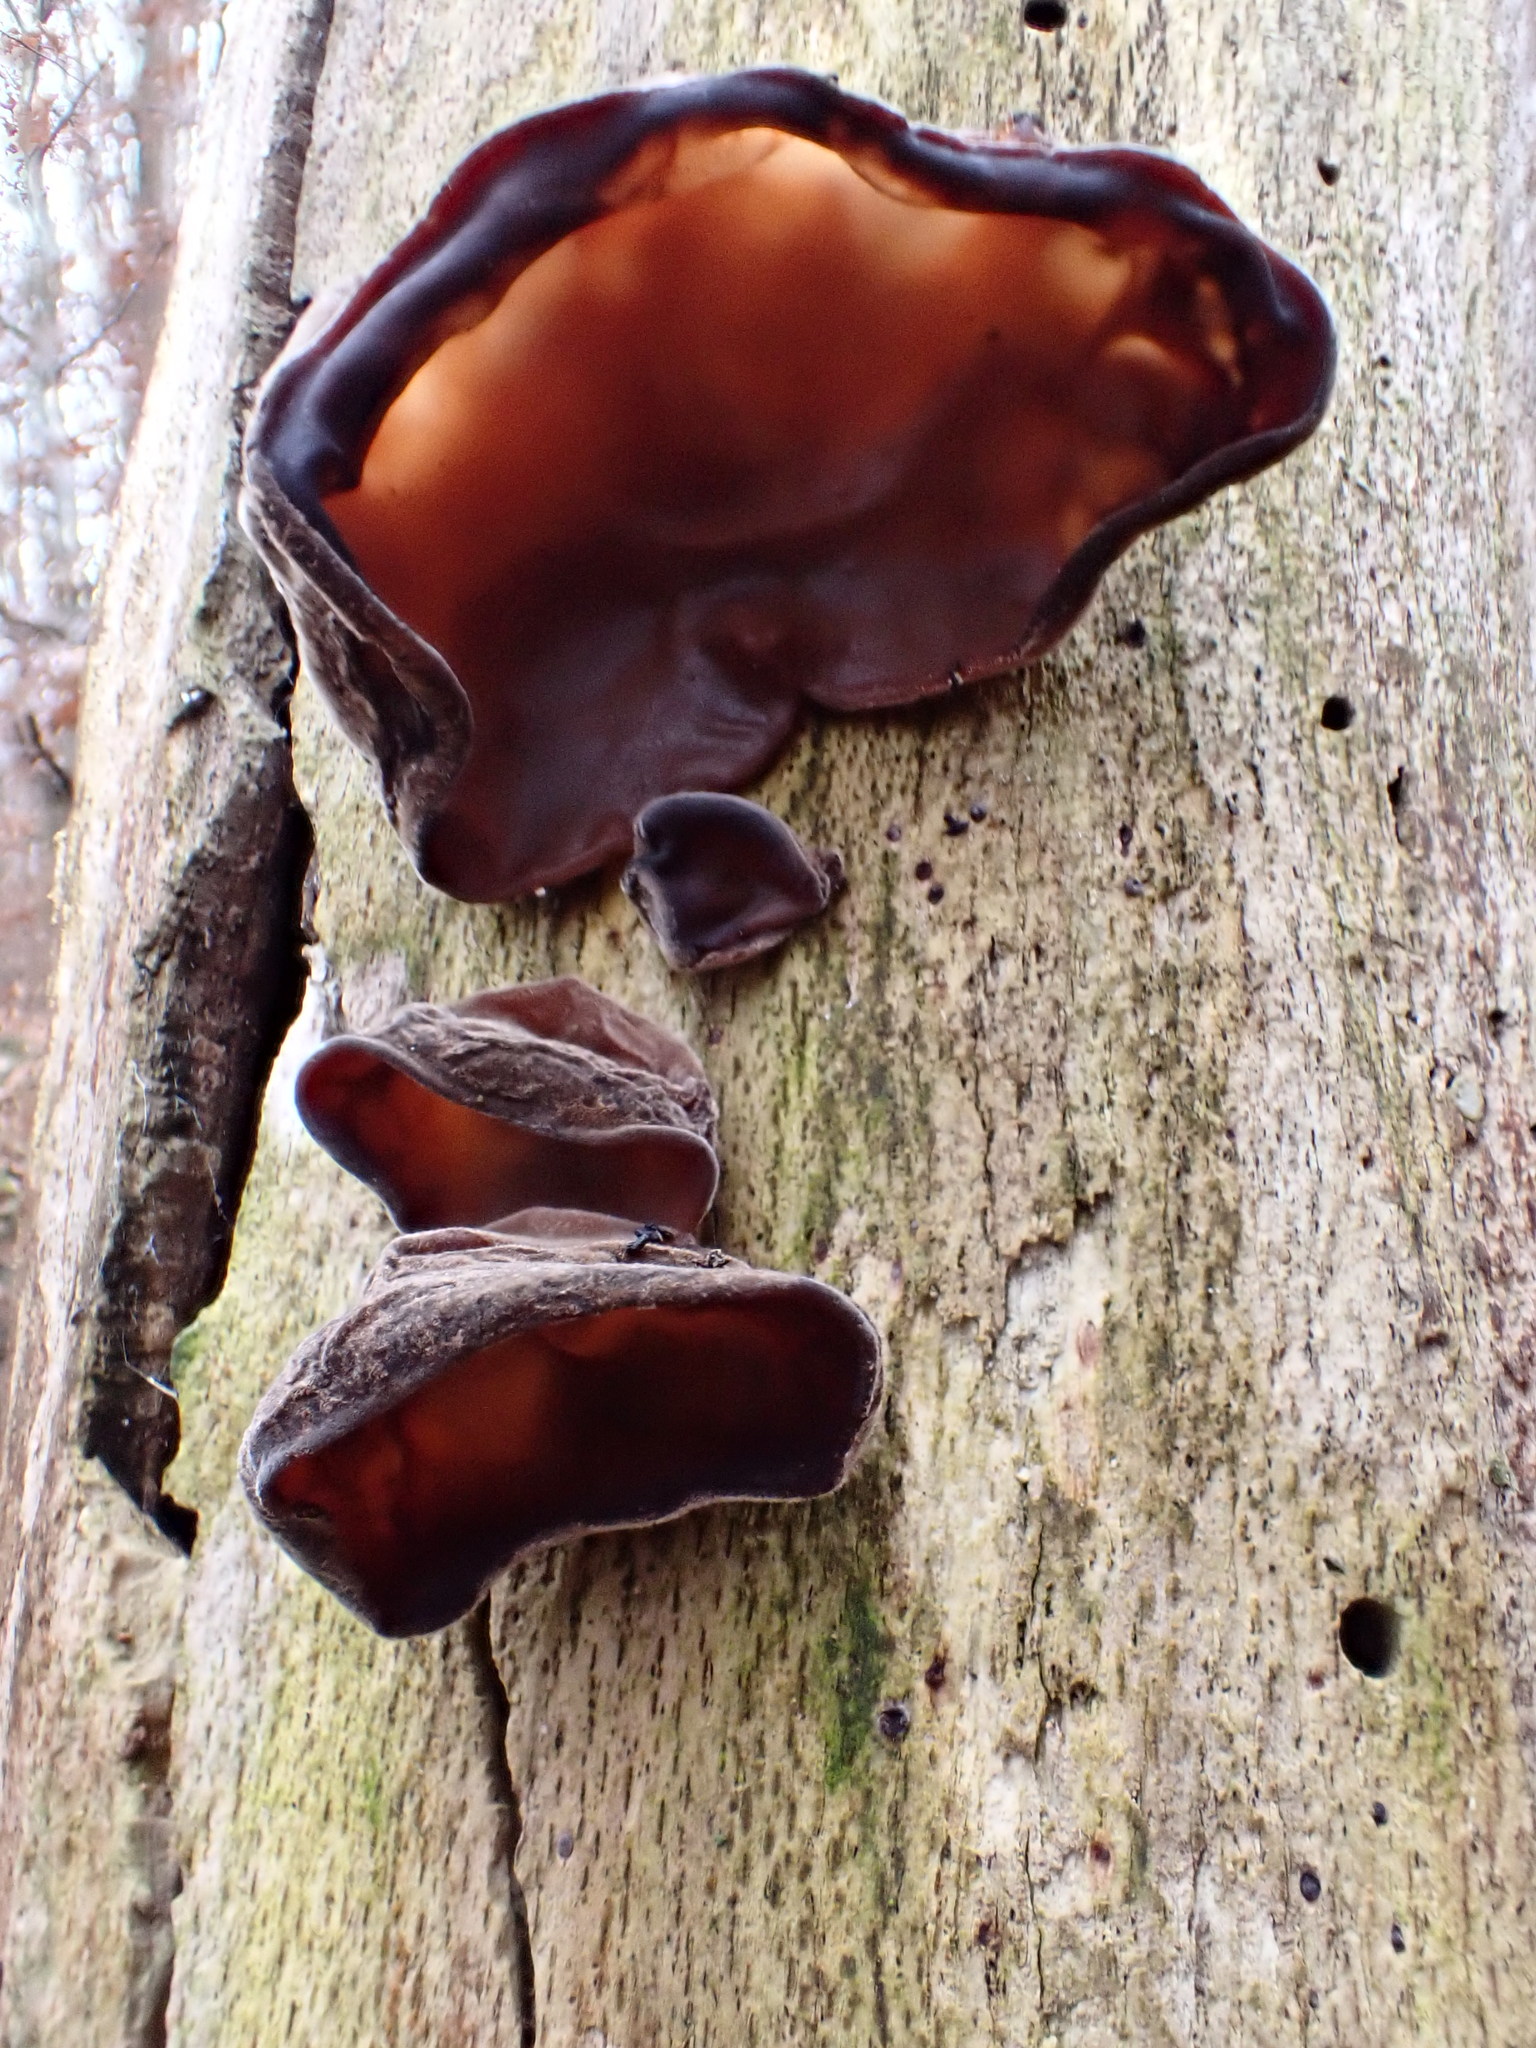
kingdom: Fungi
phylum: Basidiomycota
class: Agaricomycetes
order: Auriculariales
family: Auriculariaceae
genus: Auricularia
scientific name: Auricularia auricula-judae
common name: Jelly ear
